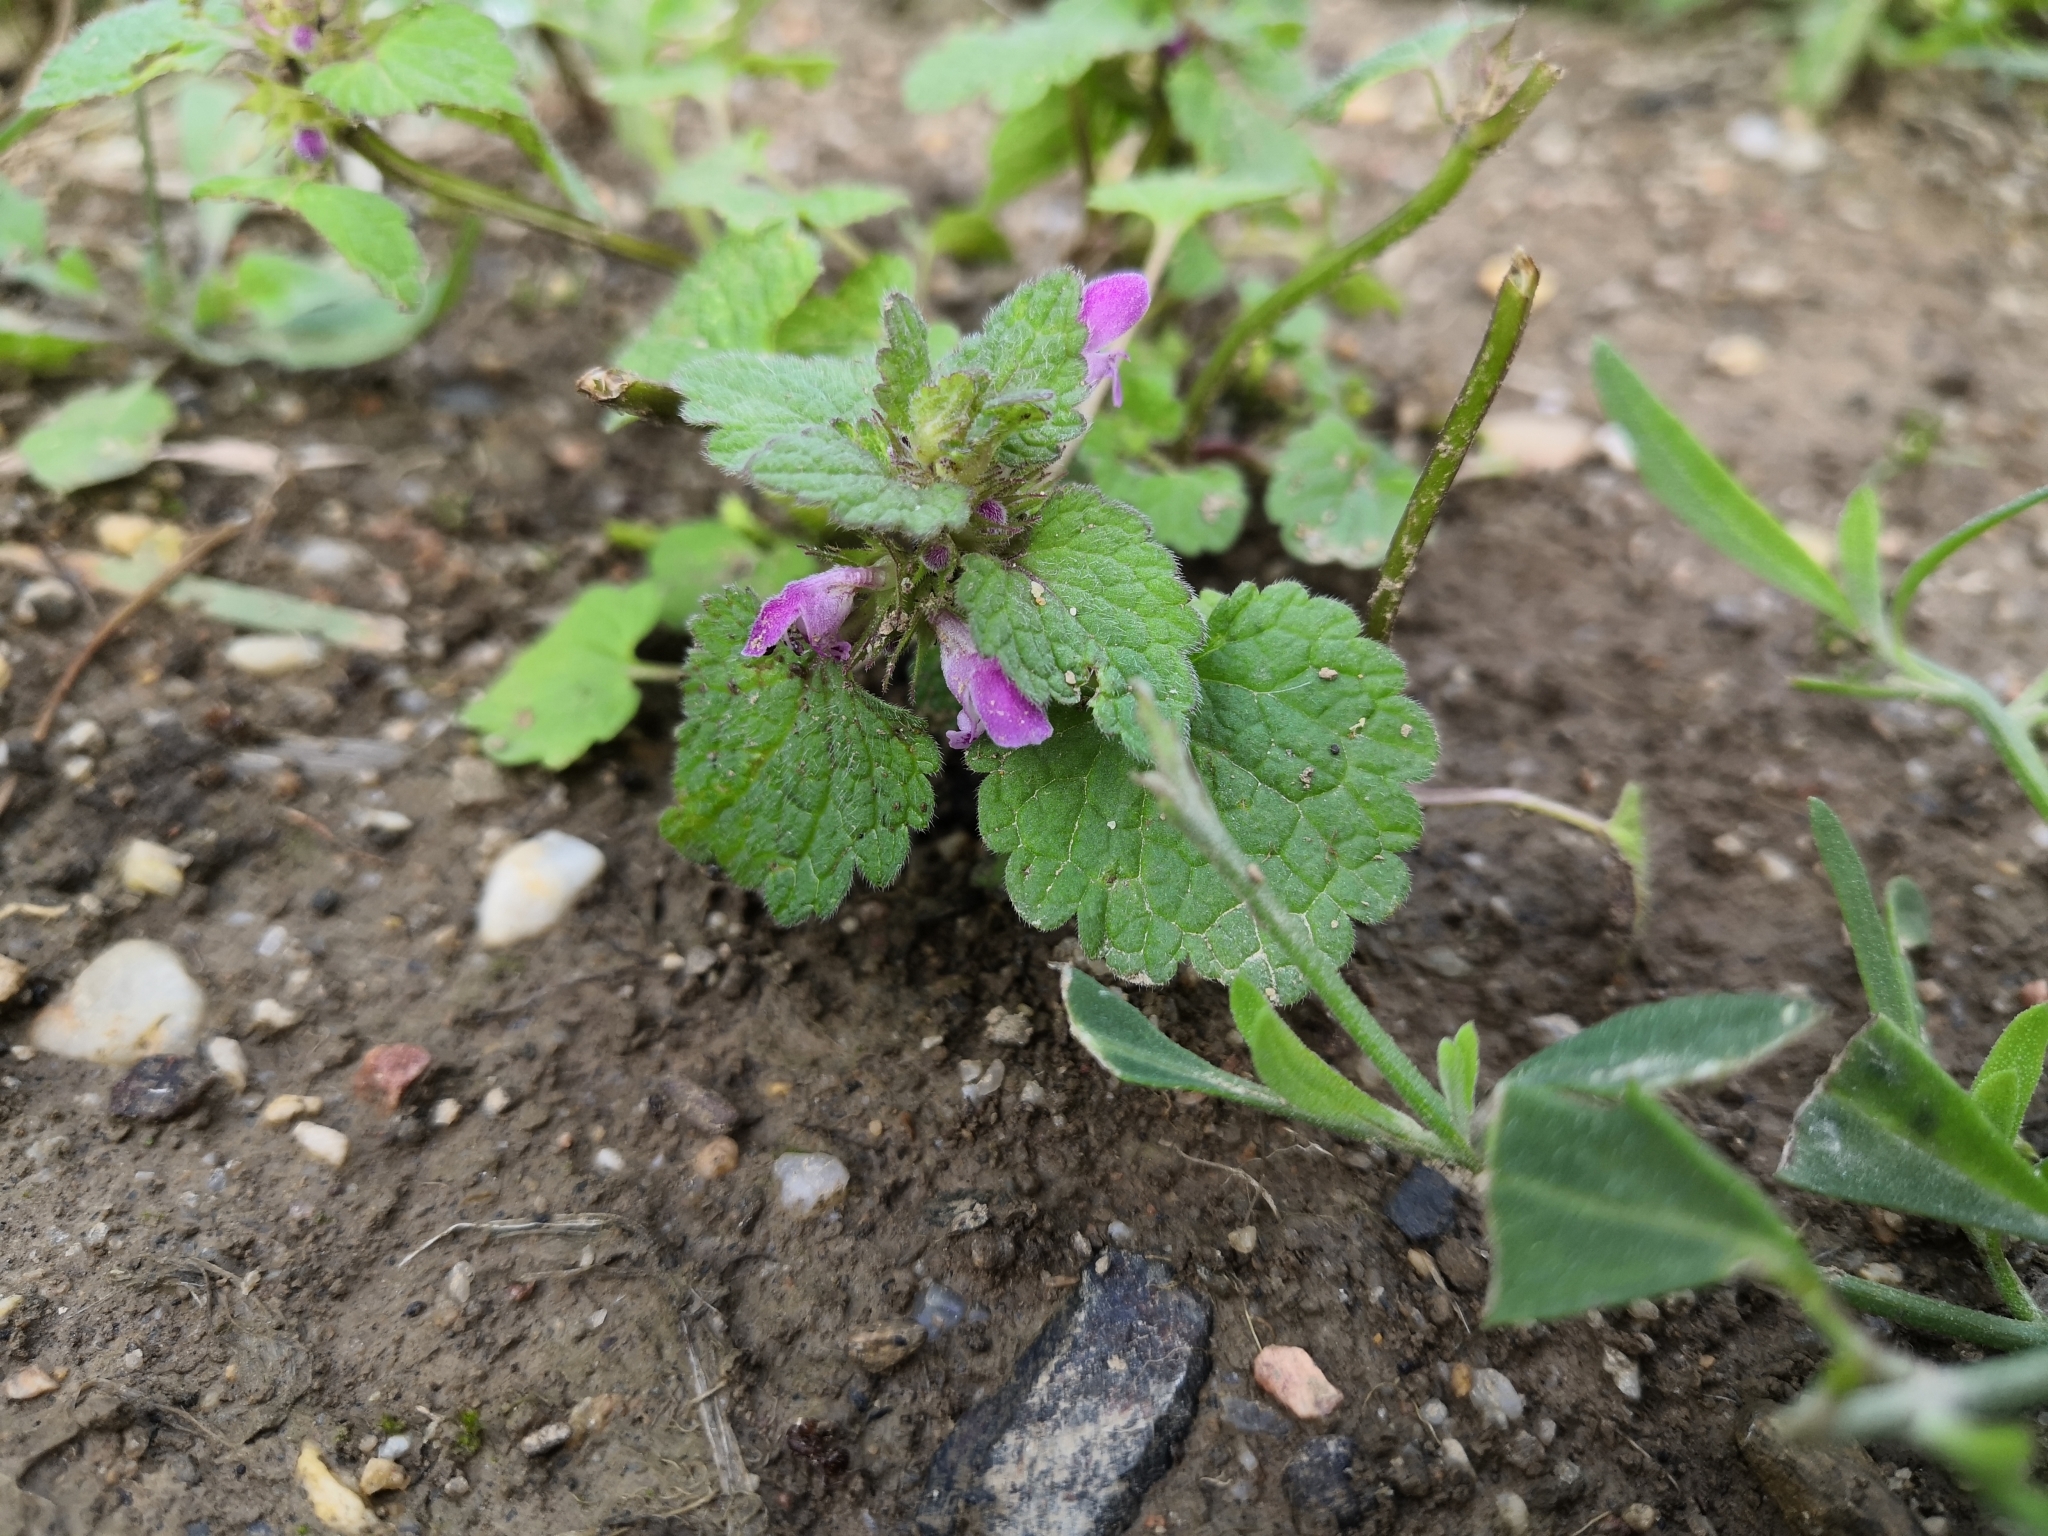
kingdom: Plantae
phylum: Tracheophyta
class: Magnoliopsida
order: Lamiales
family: Lamiaceae
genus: Lamium
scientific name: Lamium purpureum
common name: Red dead-nettle
